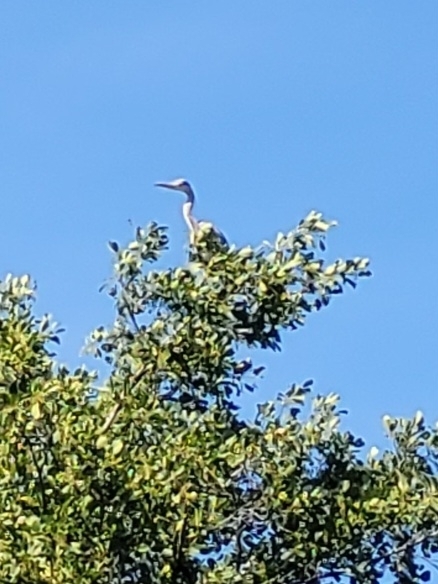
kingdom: Animalia
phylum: Chordata
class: Aves
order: Pelecaniformes
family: Ardeidae
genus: Ardea
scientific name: Ardea cinerea
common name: Grey heron
